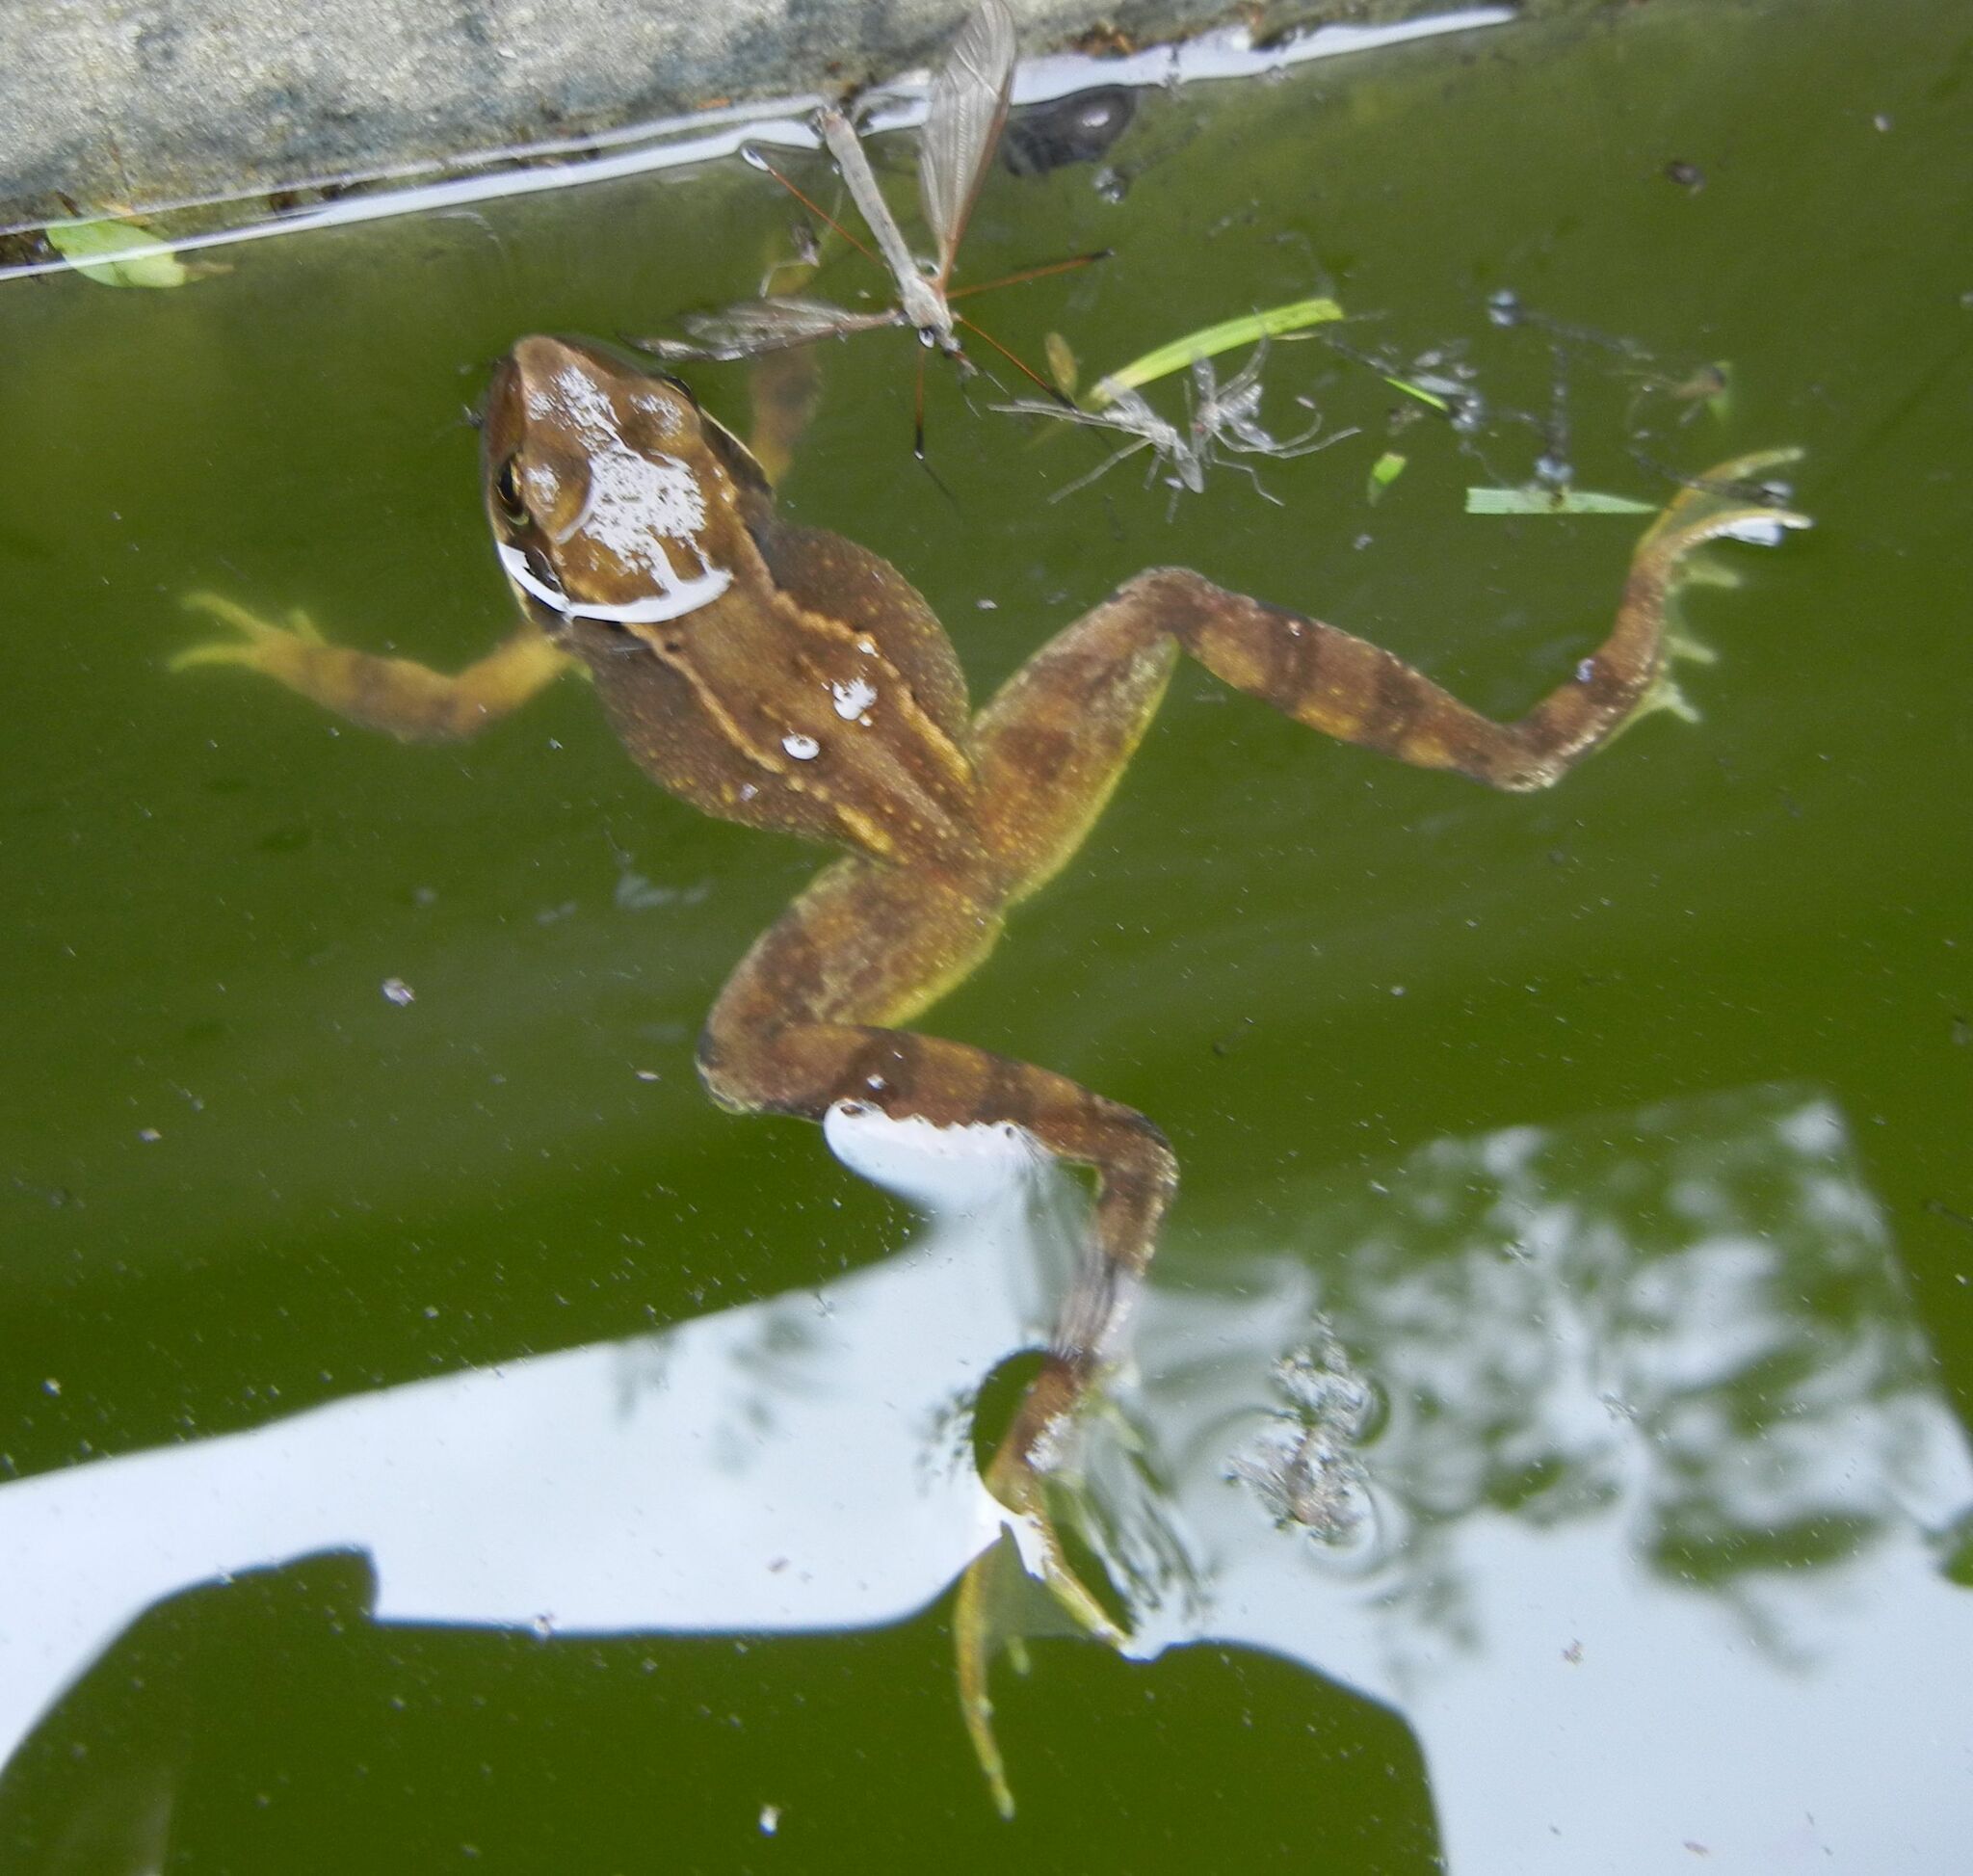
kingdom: Animalia
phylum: Chordata
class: Amphibia
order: Anura
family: Ranidae
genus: Rana
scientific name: Rana temporaria
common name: Common frog
